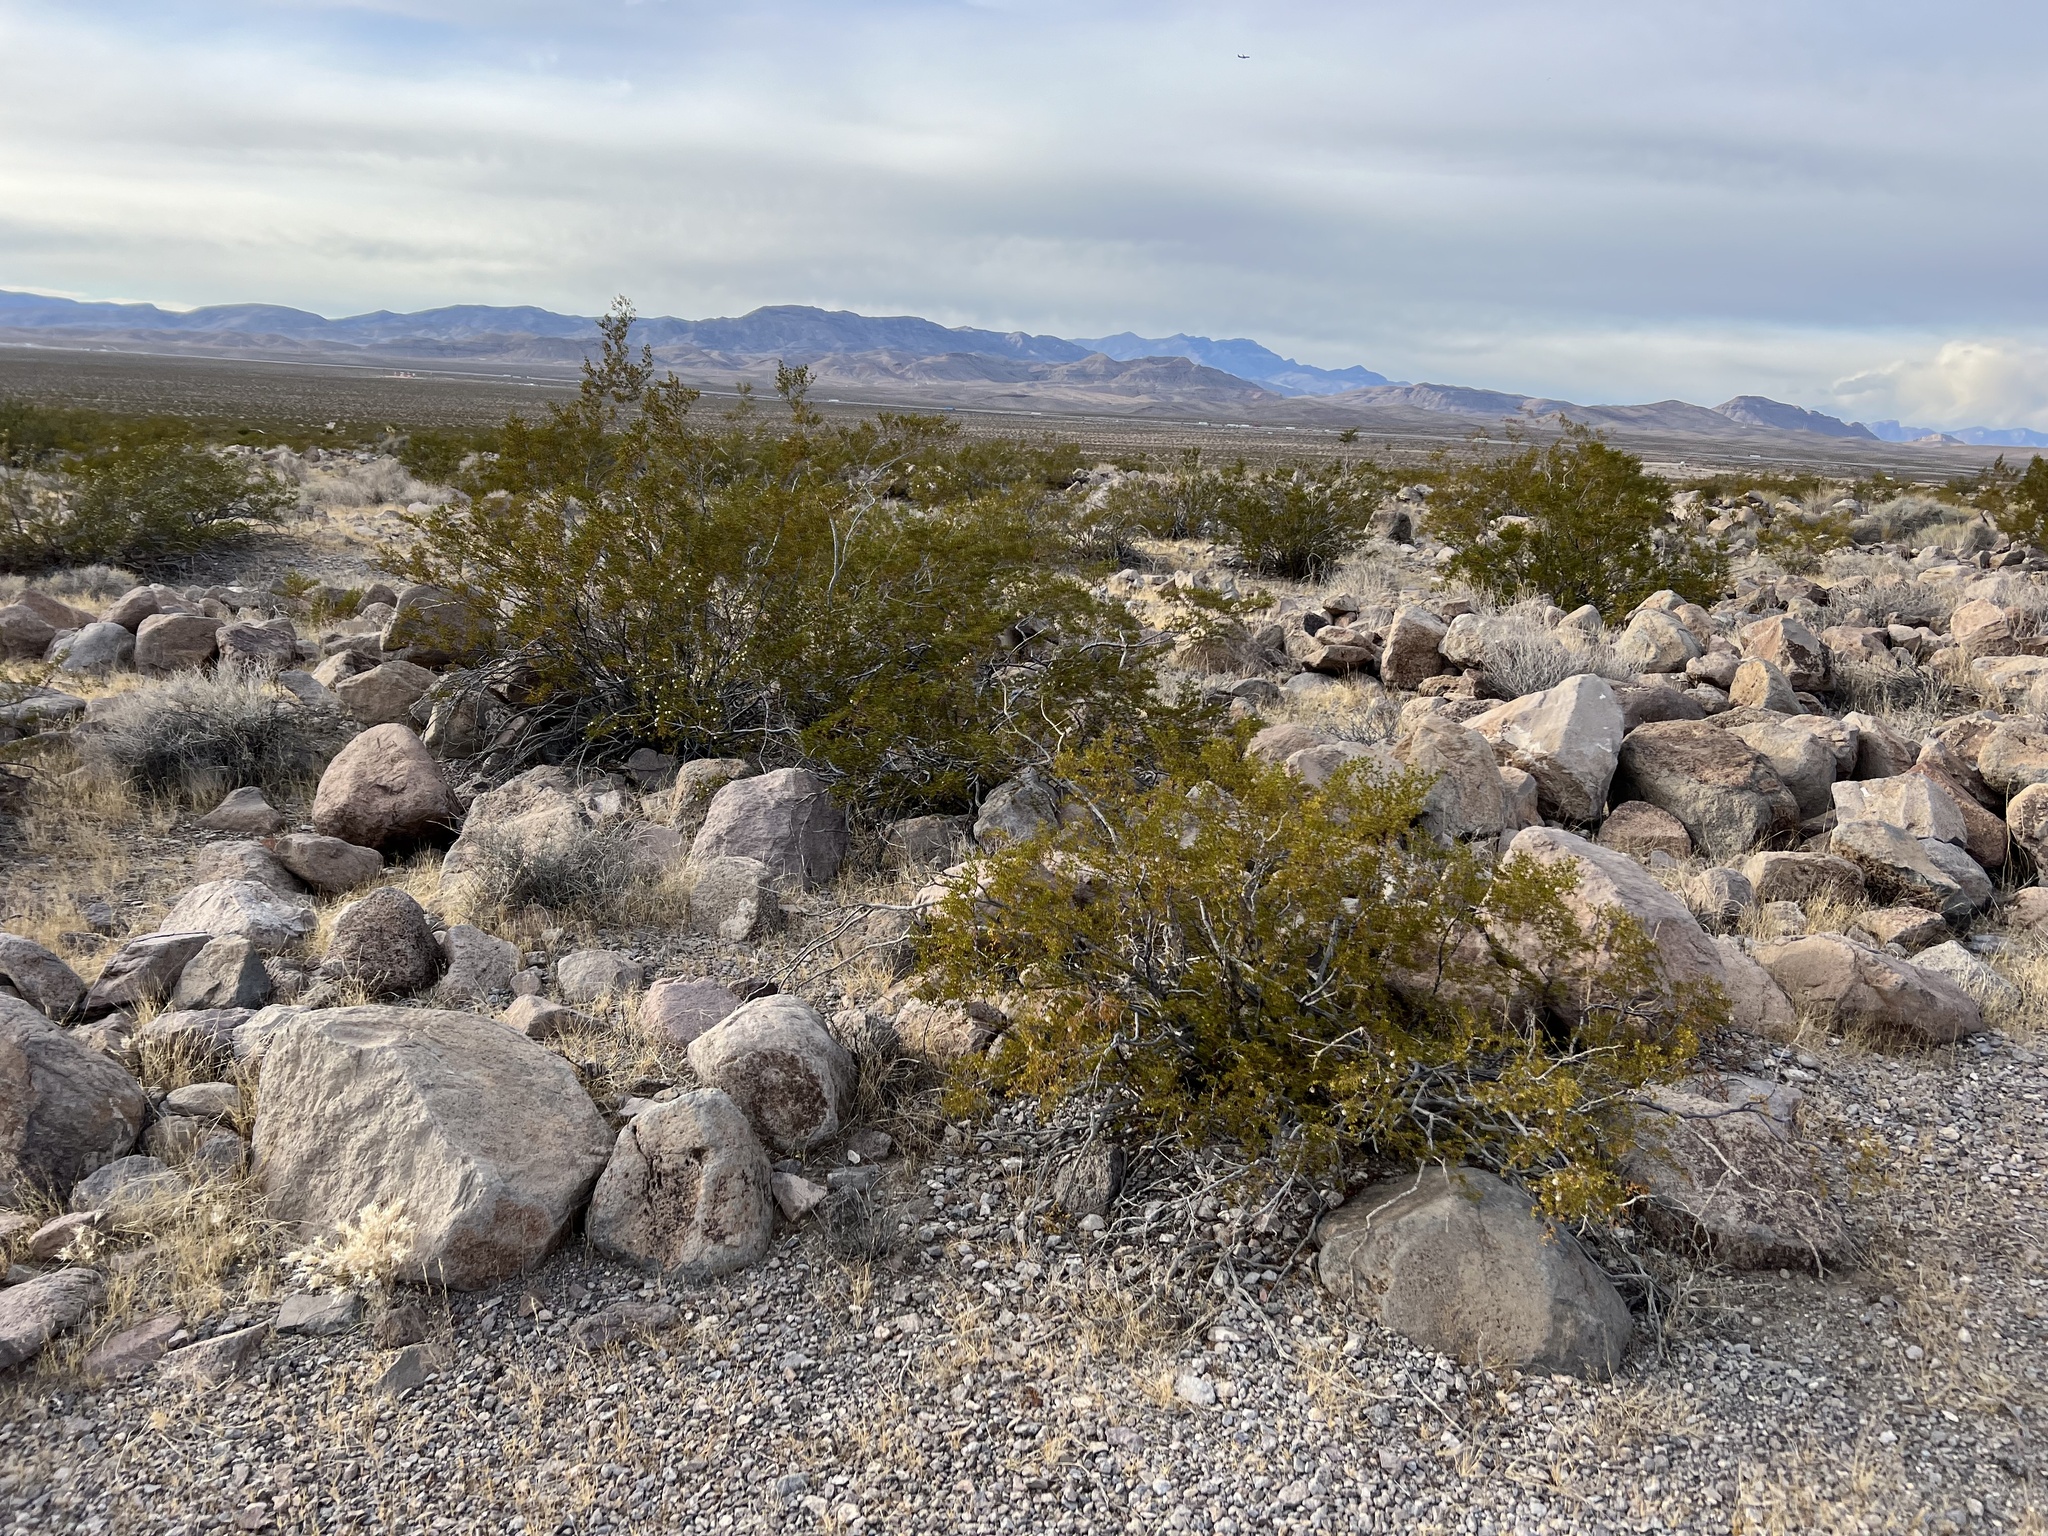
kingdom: Plantae
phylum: Tracheophyta
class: Magnoliopsida
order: Zygophyllales
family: Zygophyllaceae
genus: Larrea
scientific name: Larrea tridentata
